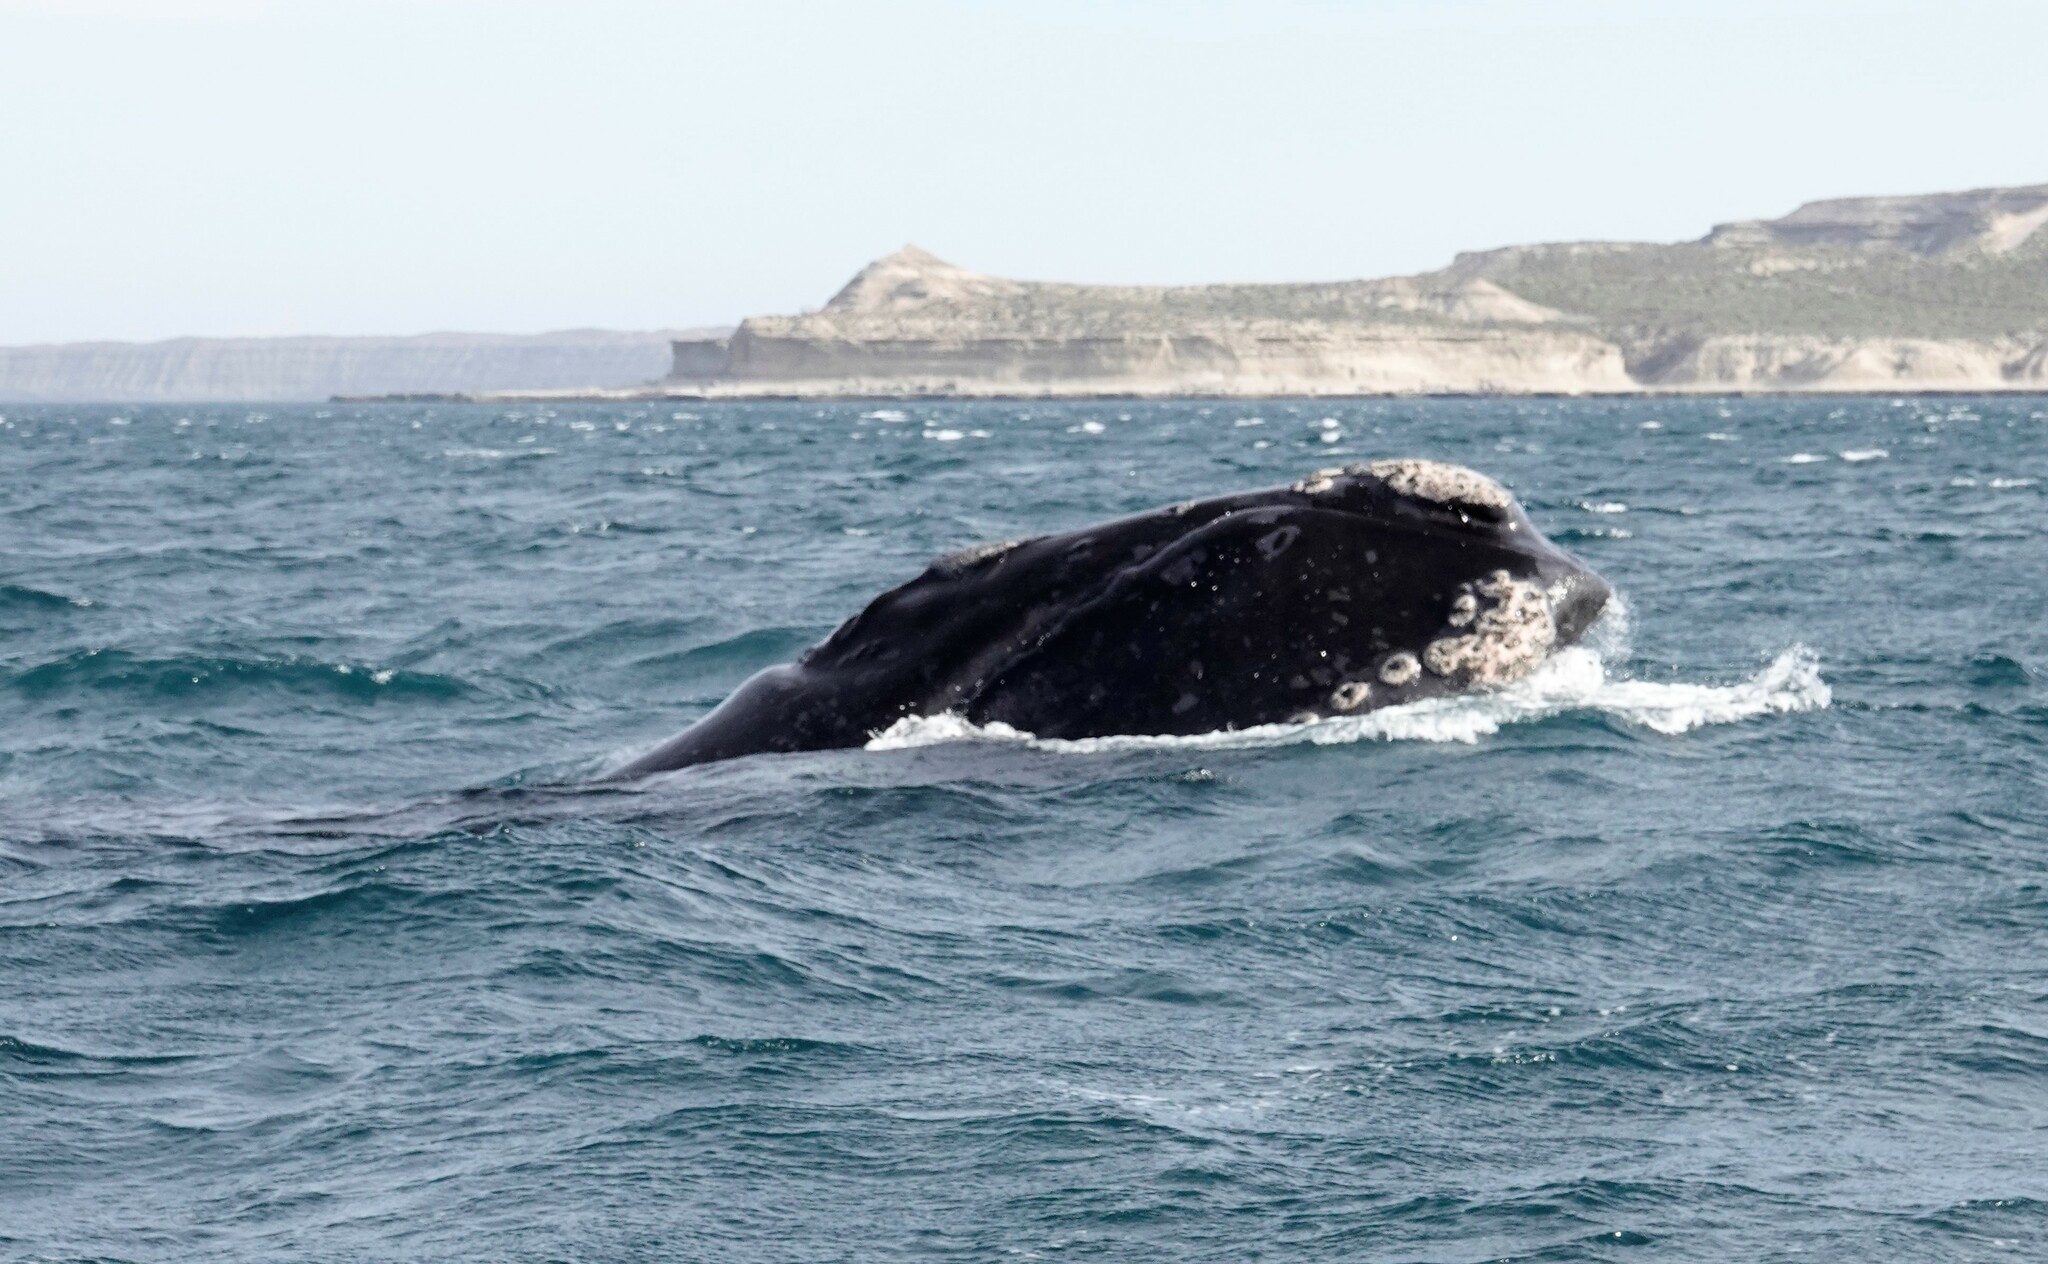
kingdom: Animalia
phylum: Chordata
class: Mammalia
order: Cetacea
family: Balaenidae
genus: Eubalaena
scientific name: Eubalaena australis
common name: Southern right whale
